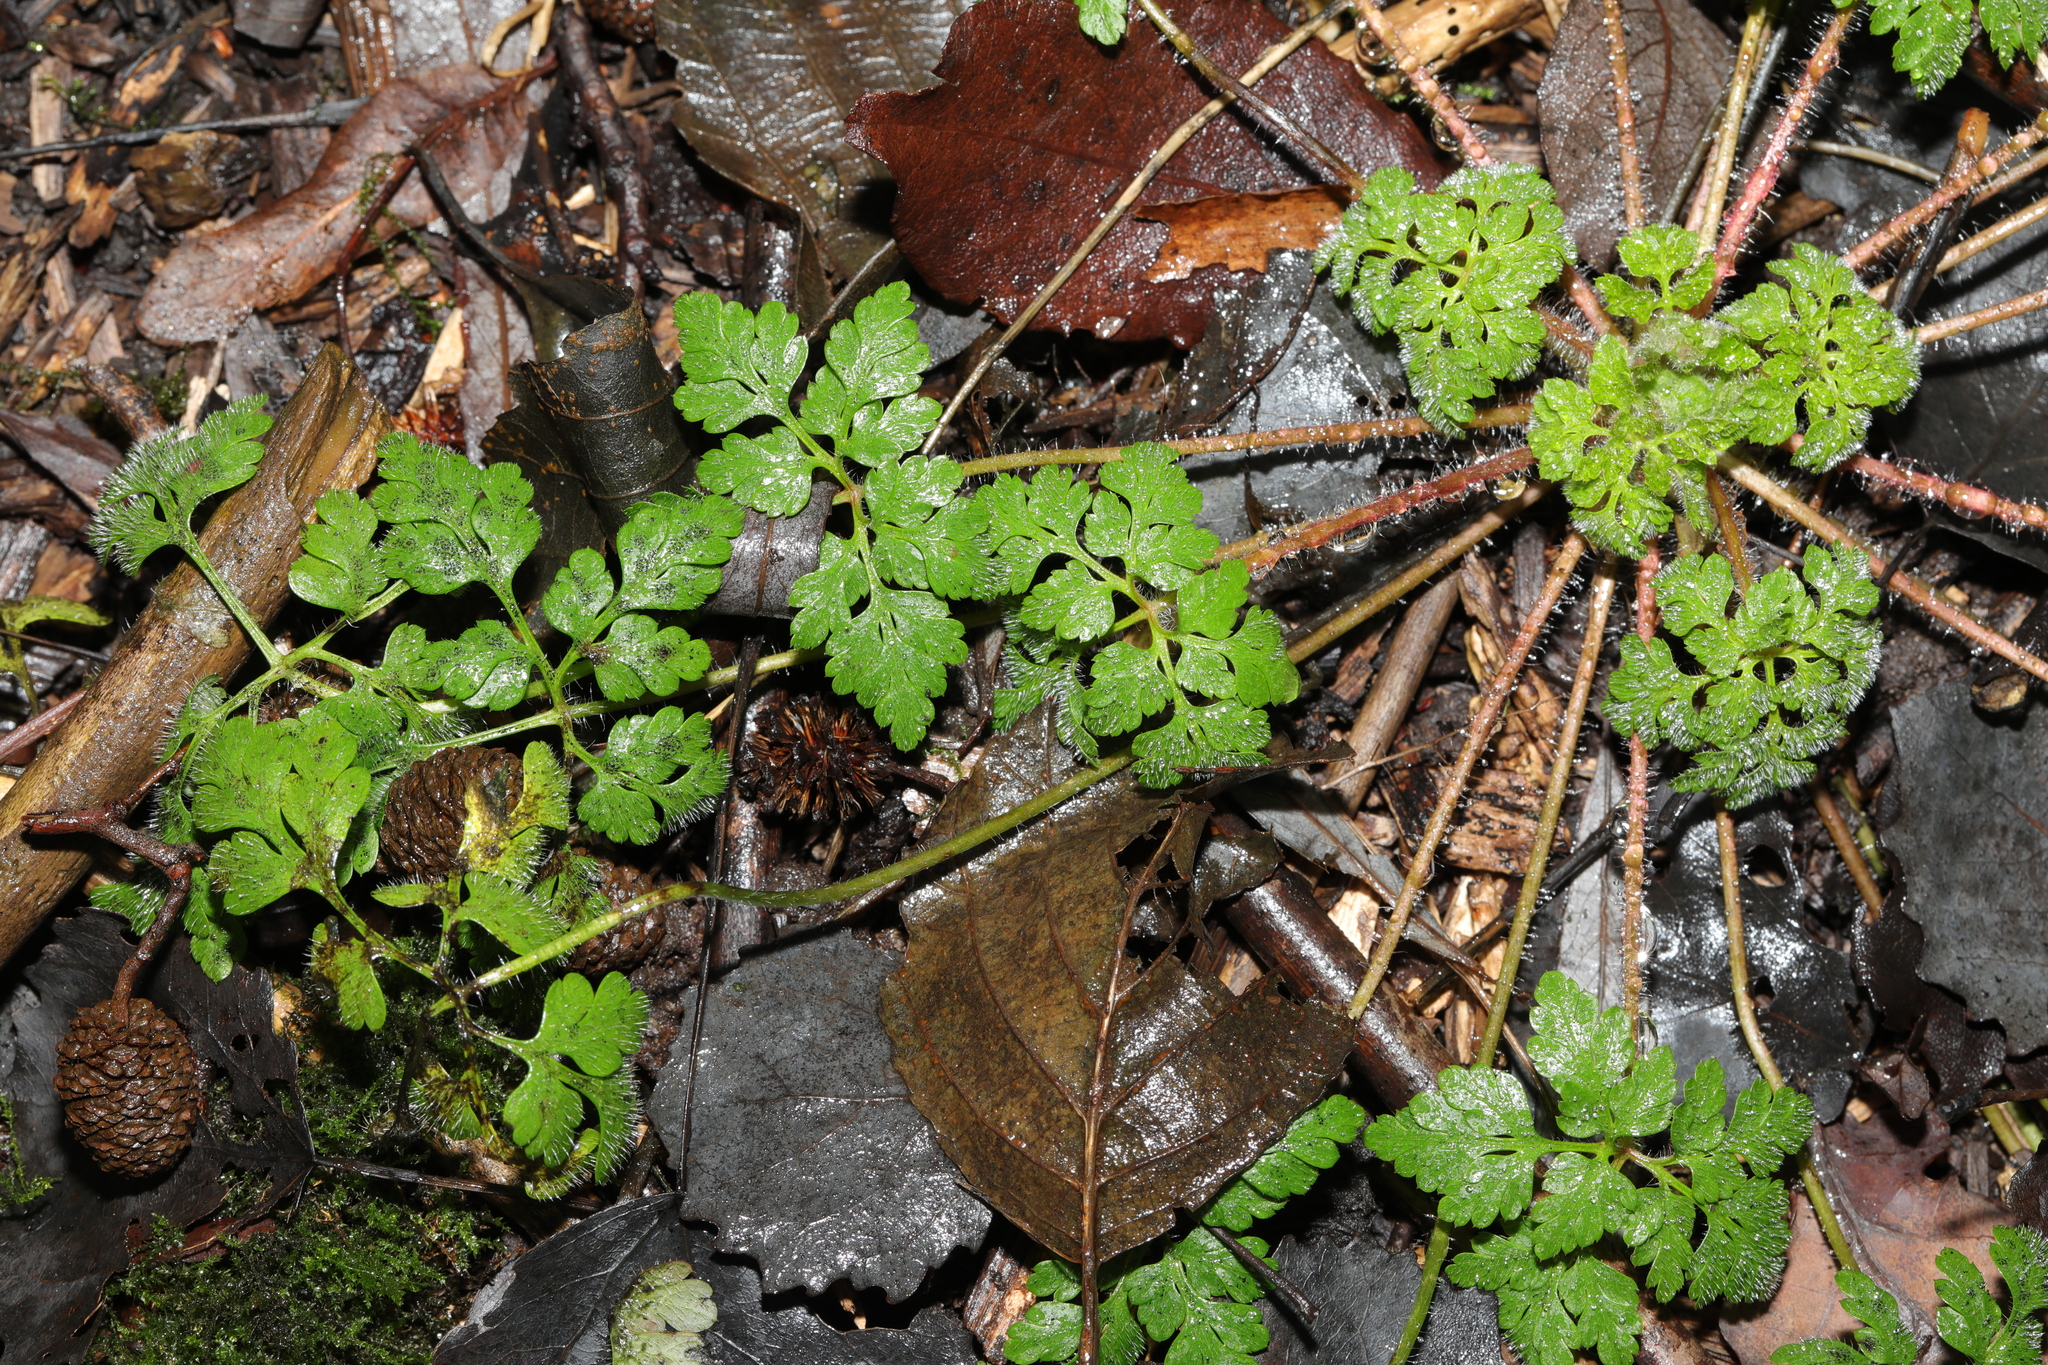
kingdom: Plantae
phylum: Tracheophyta
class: Magnoliopsida
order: Geraniales
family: Geraniaceae
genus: Geranium
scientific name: Geranium robertianum
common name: Herb-robert
